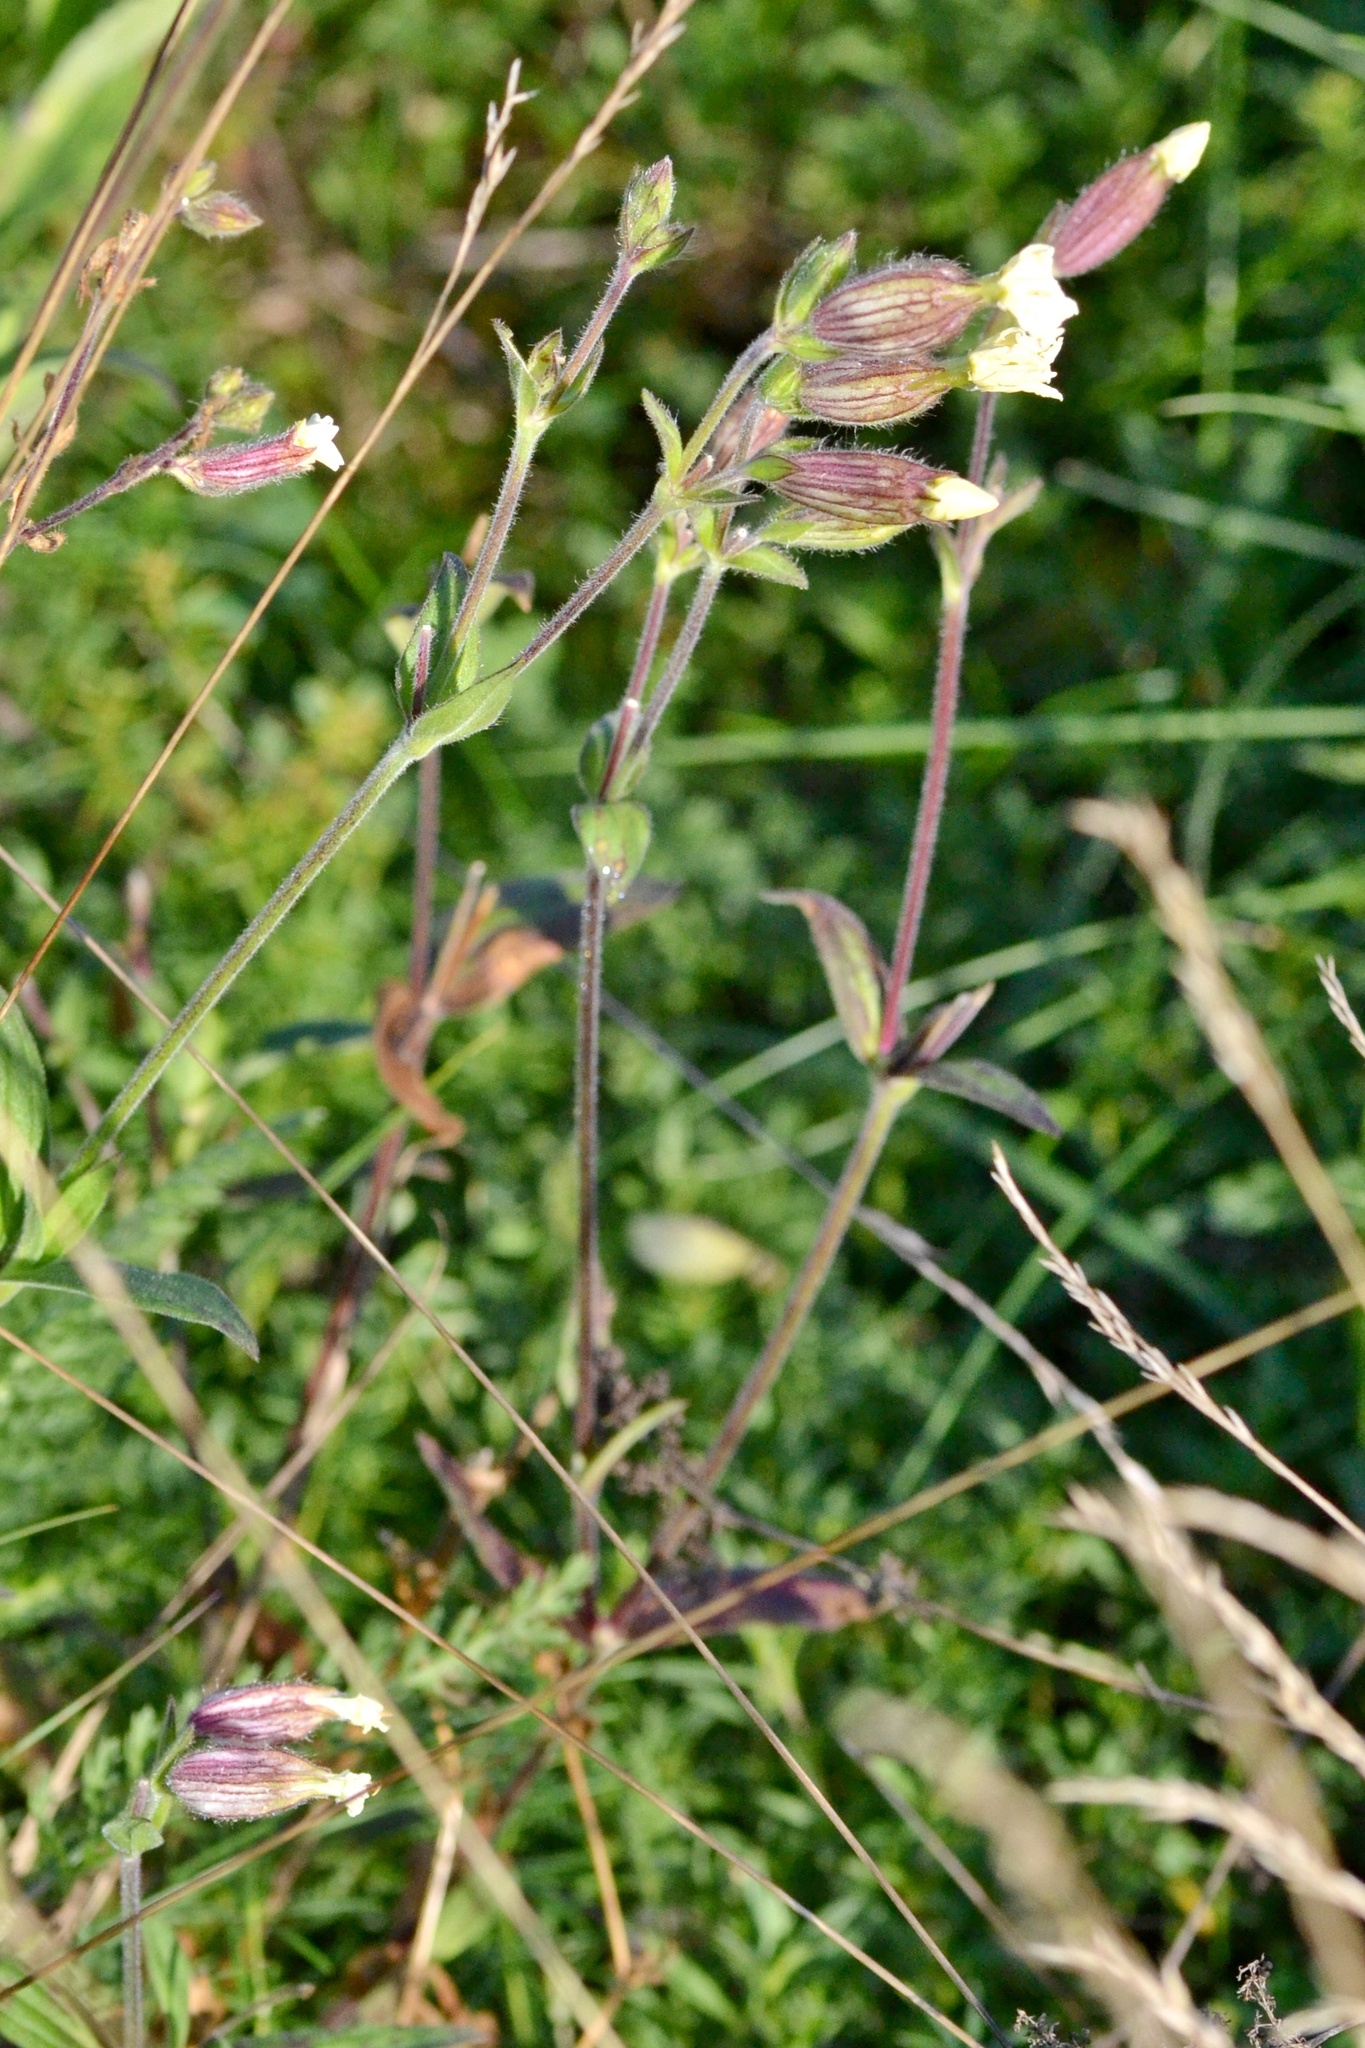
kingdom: Plantae
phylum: Tracheophyta
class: Magnoliopsida
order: Caryophyllales
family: Caryophyllaceae
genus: Silene
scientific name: Silene latifolia
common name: White campion
